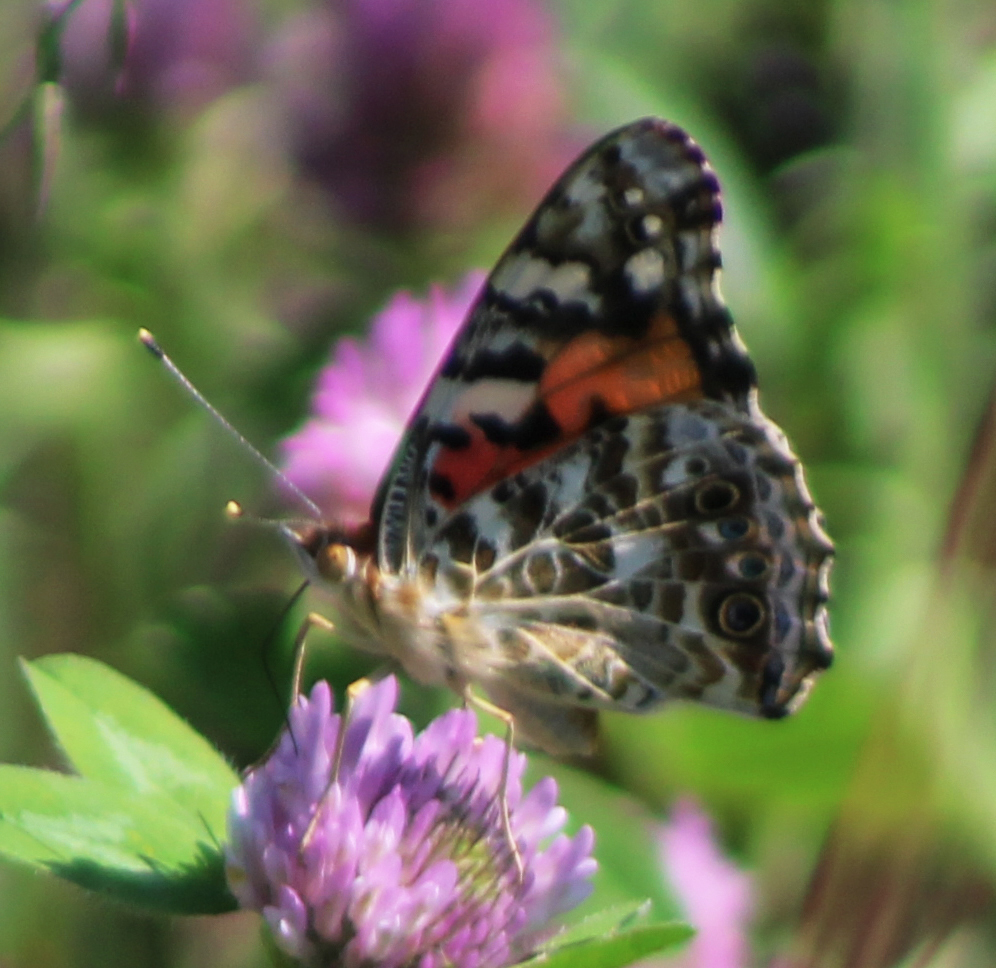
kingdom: Animalia
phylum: Arthropoda
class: Insecta
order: Lepidoptera
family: Nymphalidae
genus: Vanessa
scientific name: Vanessa cardui
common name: Painted lady
